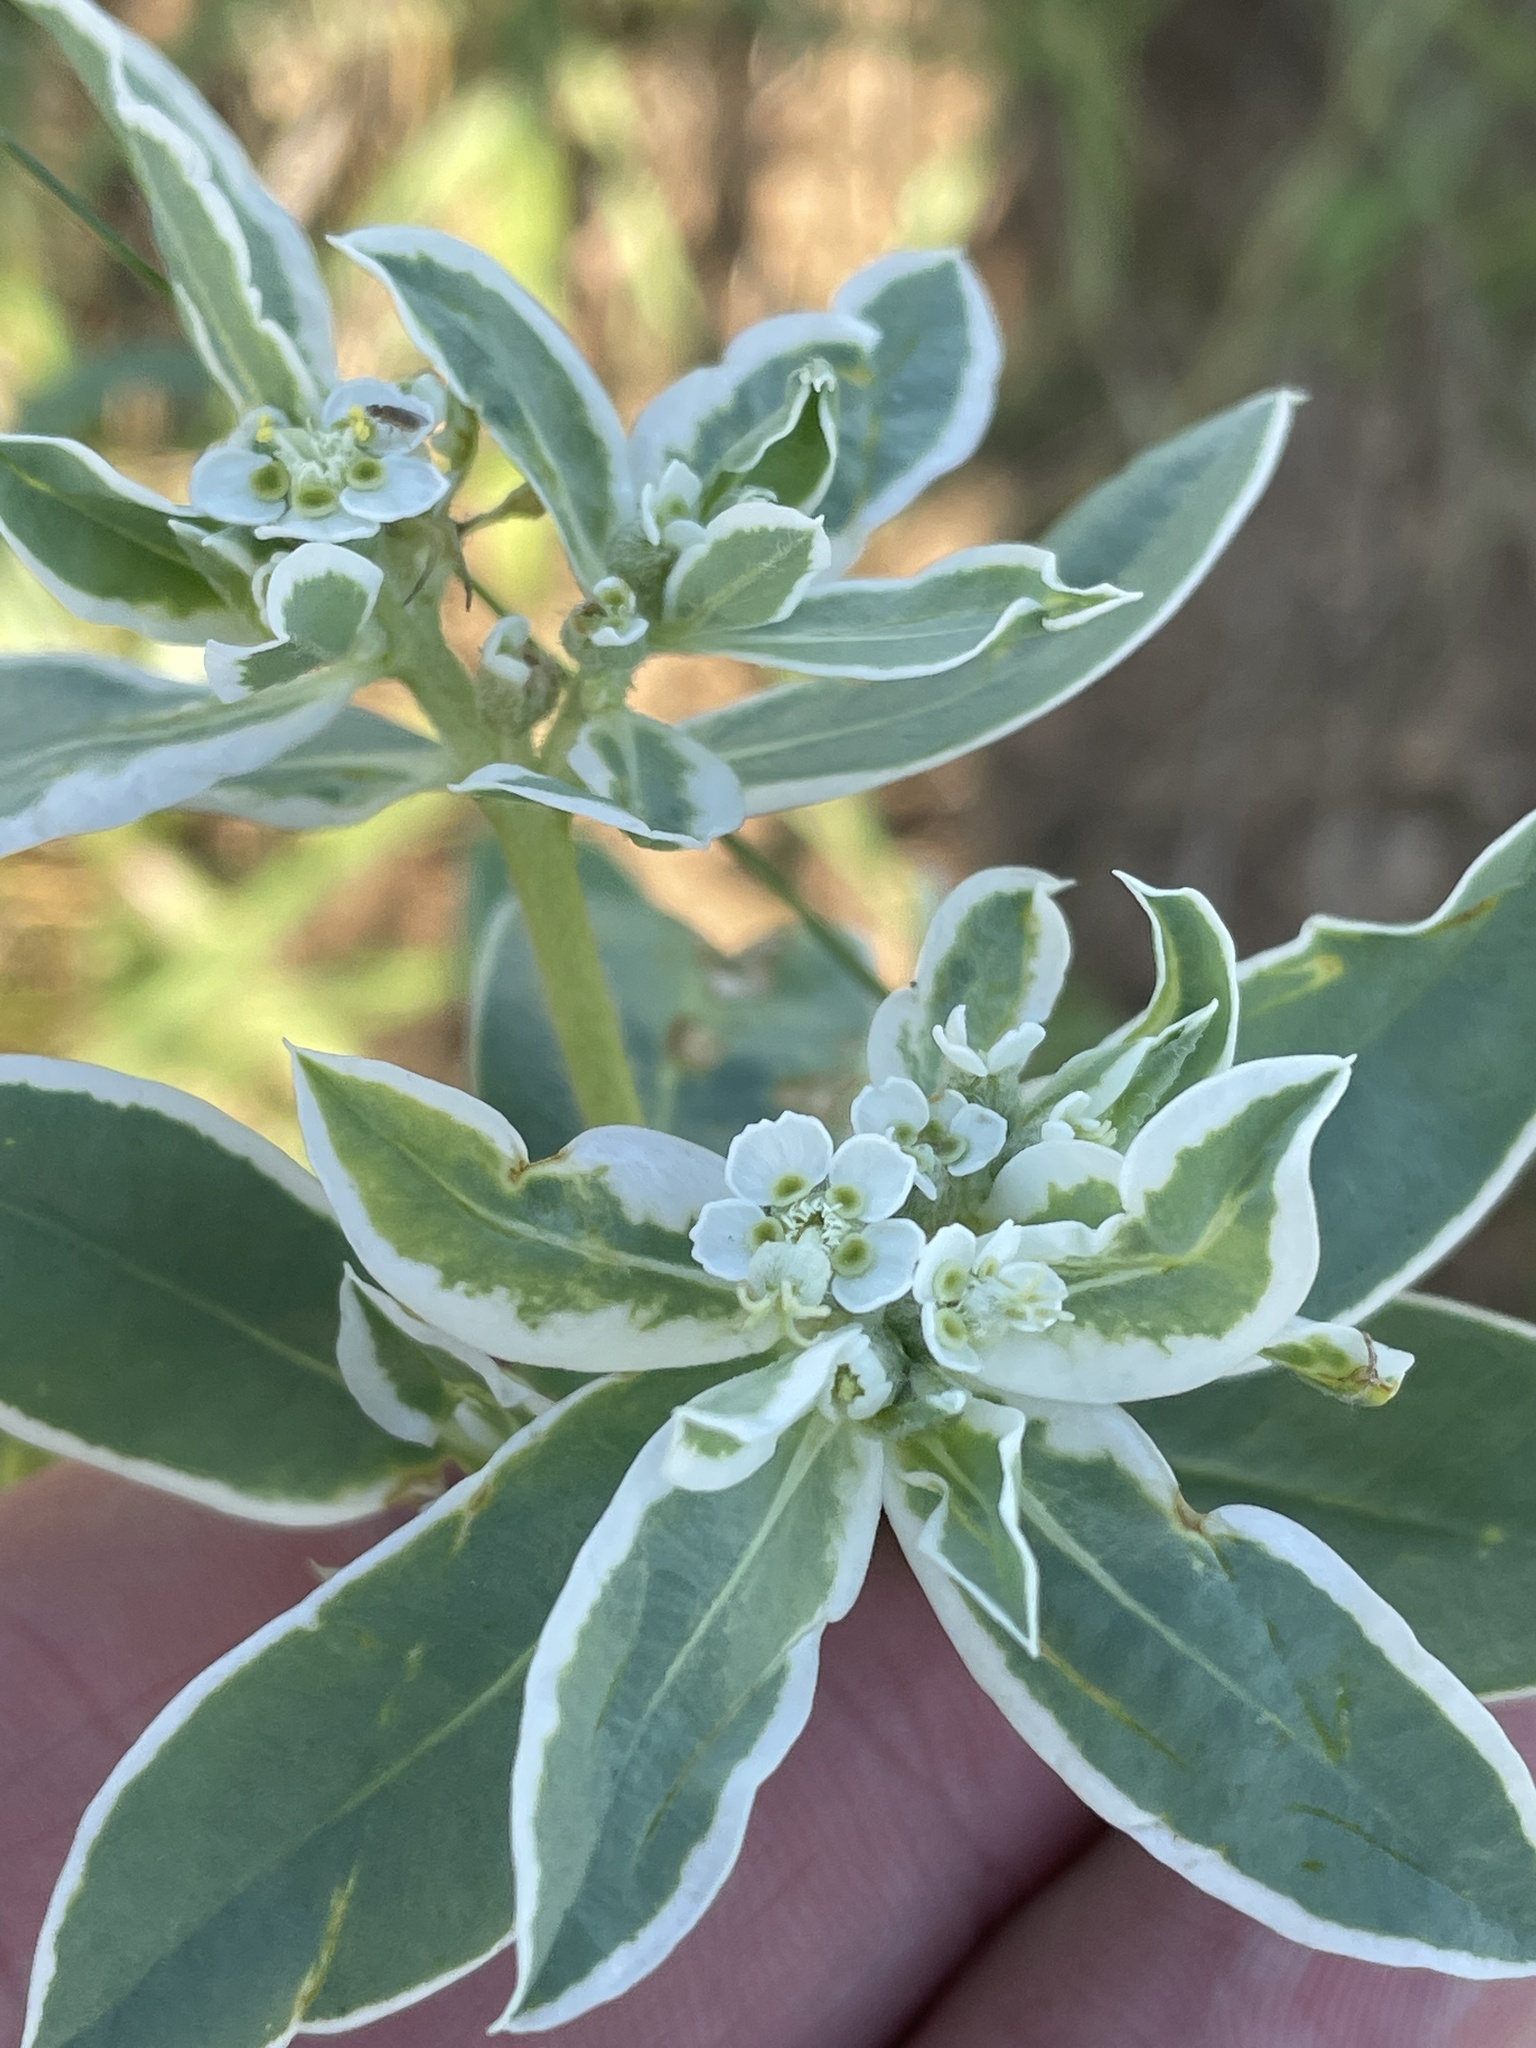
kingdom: Plantae
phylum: Tracheophyta
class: Magnoliopsida
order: Malpighiales
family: Euphorbiaceae
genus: Euphorbia
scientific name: Euphorbia marginata
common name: Ghostweed
